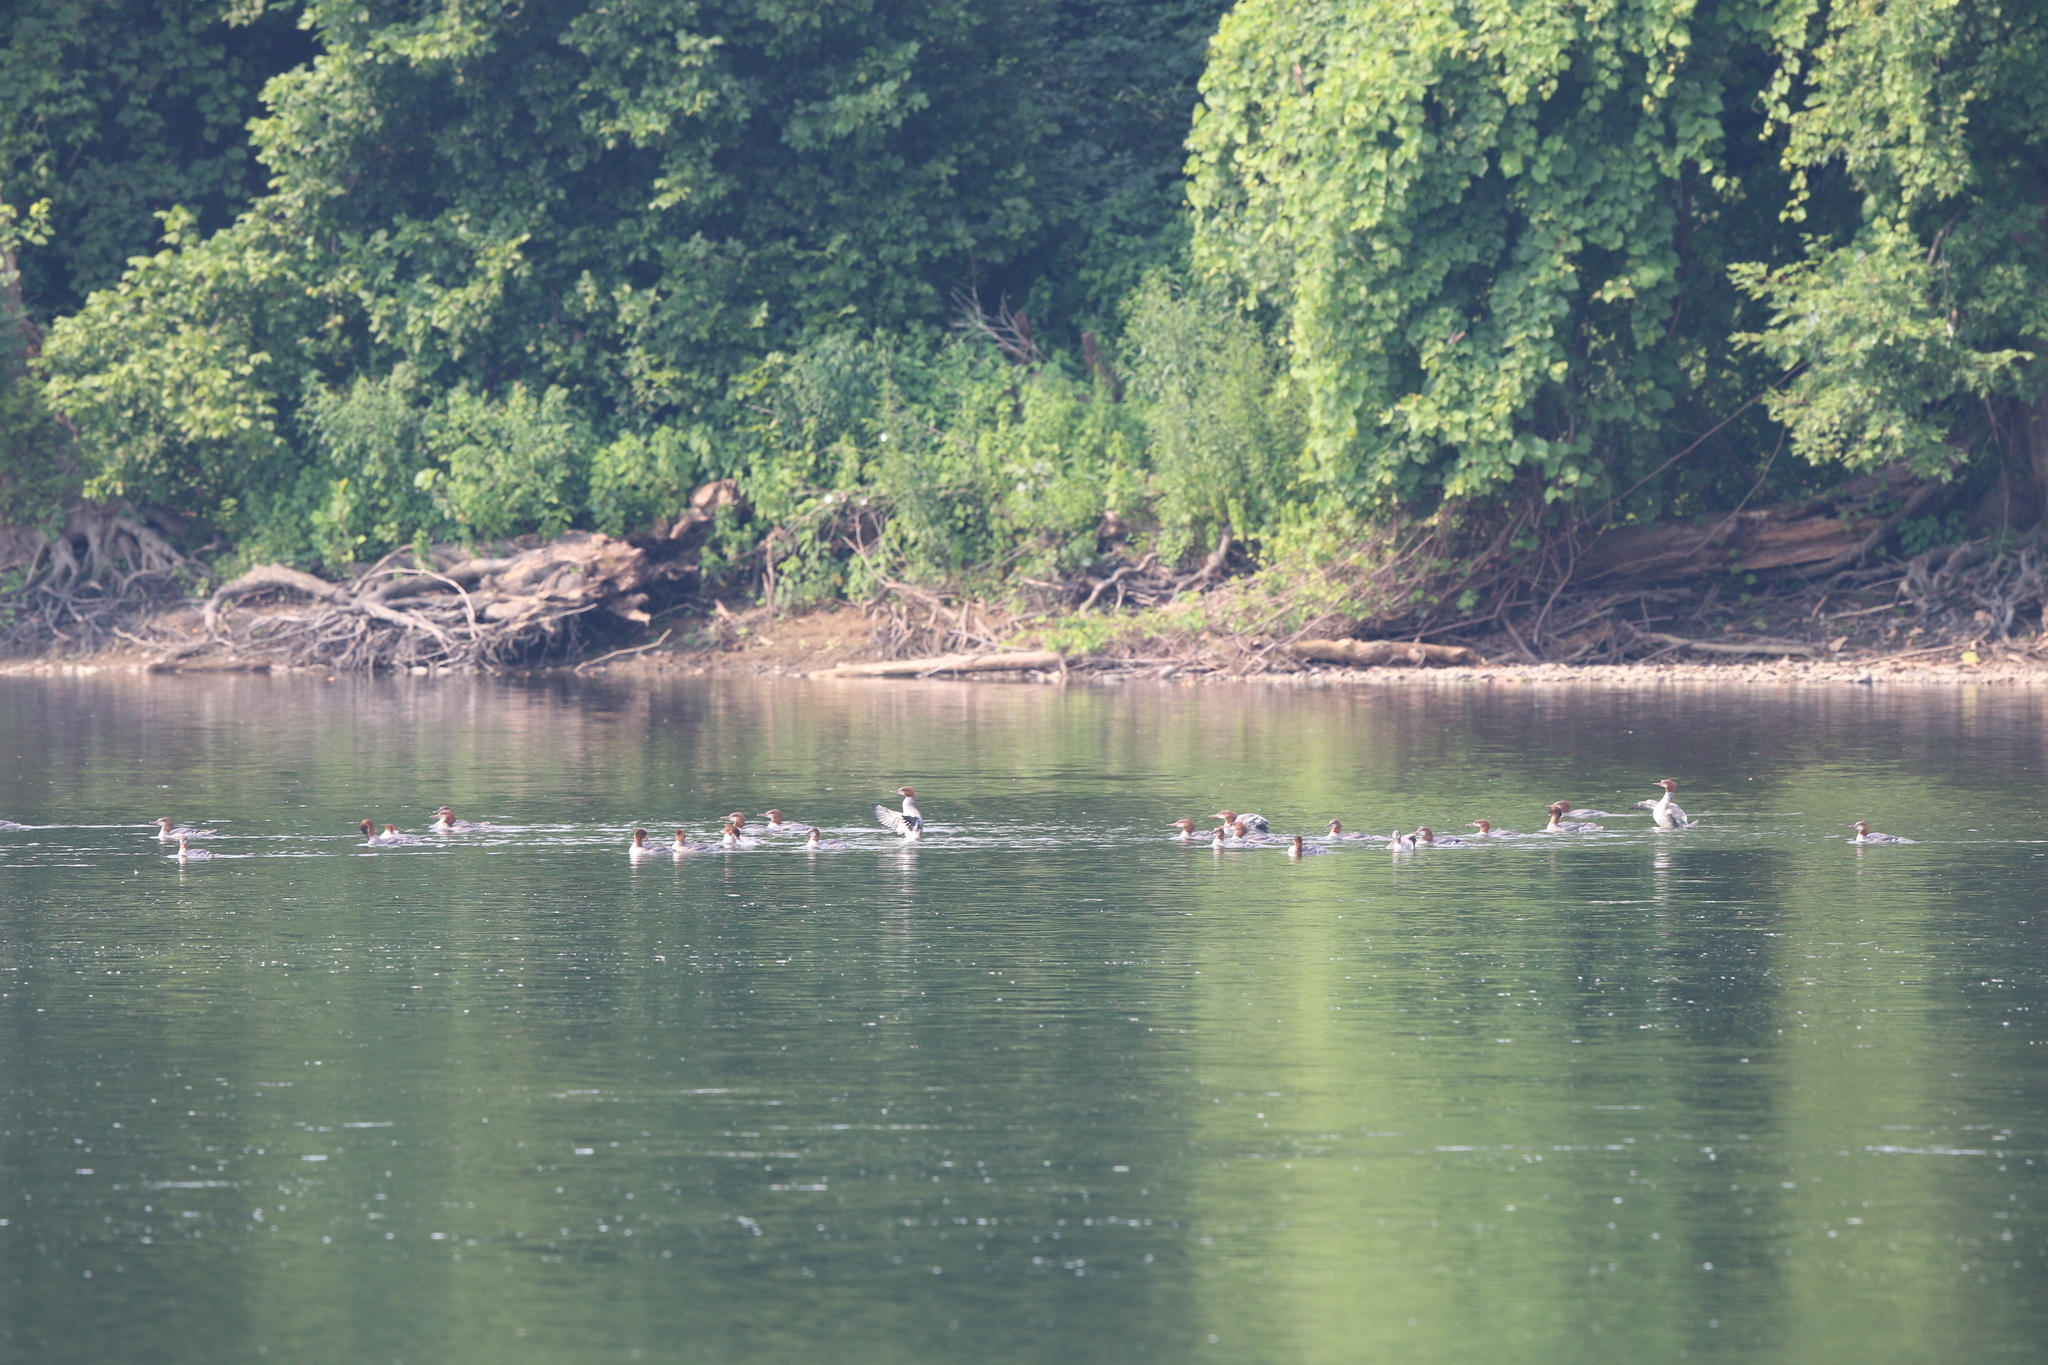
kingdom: Animalia
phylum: Chordata
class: Aves
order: Anseriformes
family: Anatidae
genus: Mergus
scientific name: Mergus merganser
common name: Common merganser
